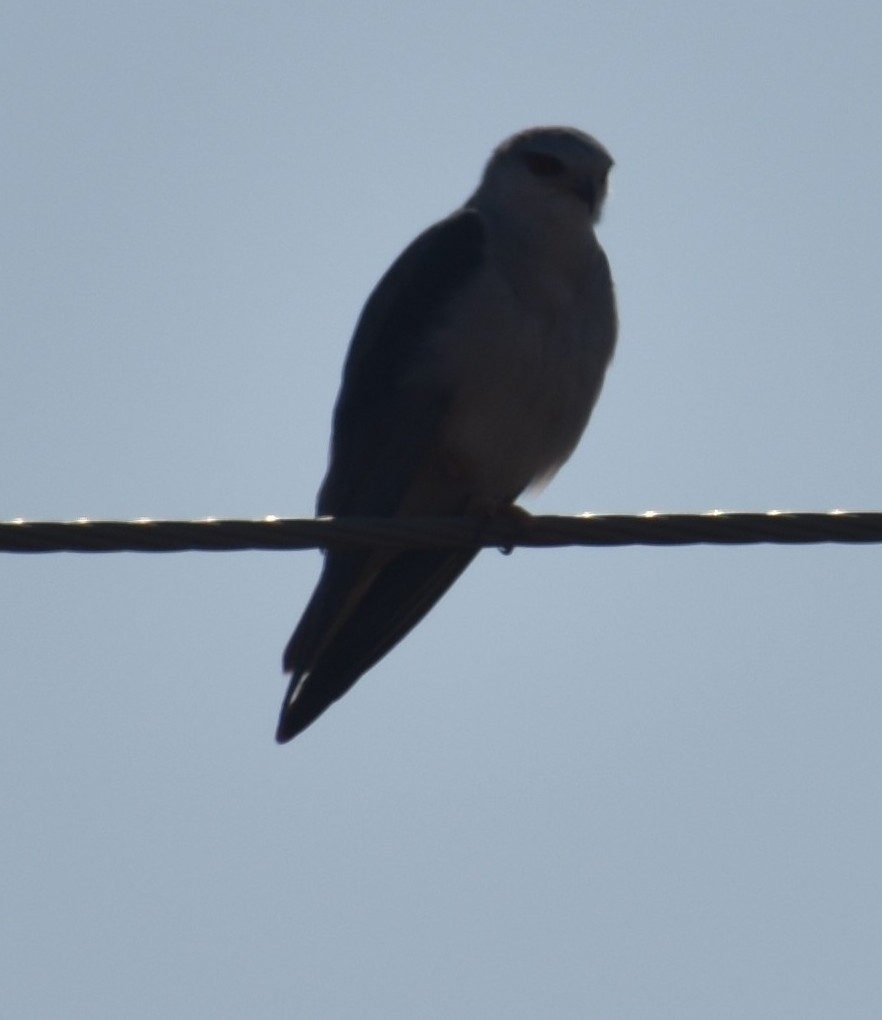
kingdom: Animalia
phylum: Chordata
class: Aves
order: Accipitriformes
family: Accipitridae
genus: Elanus
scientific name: Elanus caeruleus
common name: Black-winged kite
